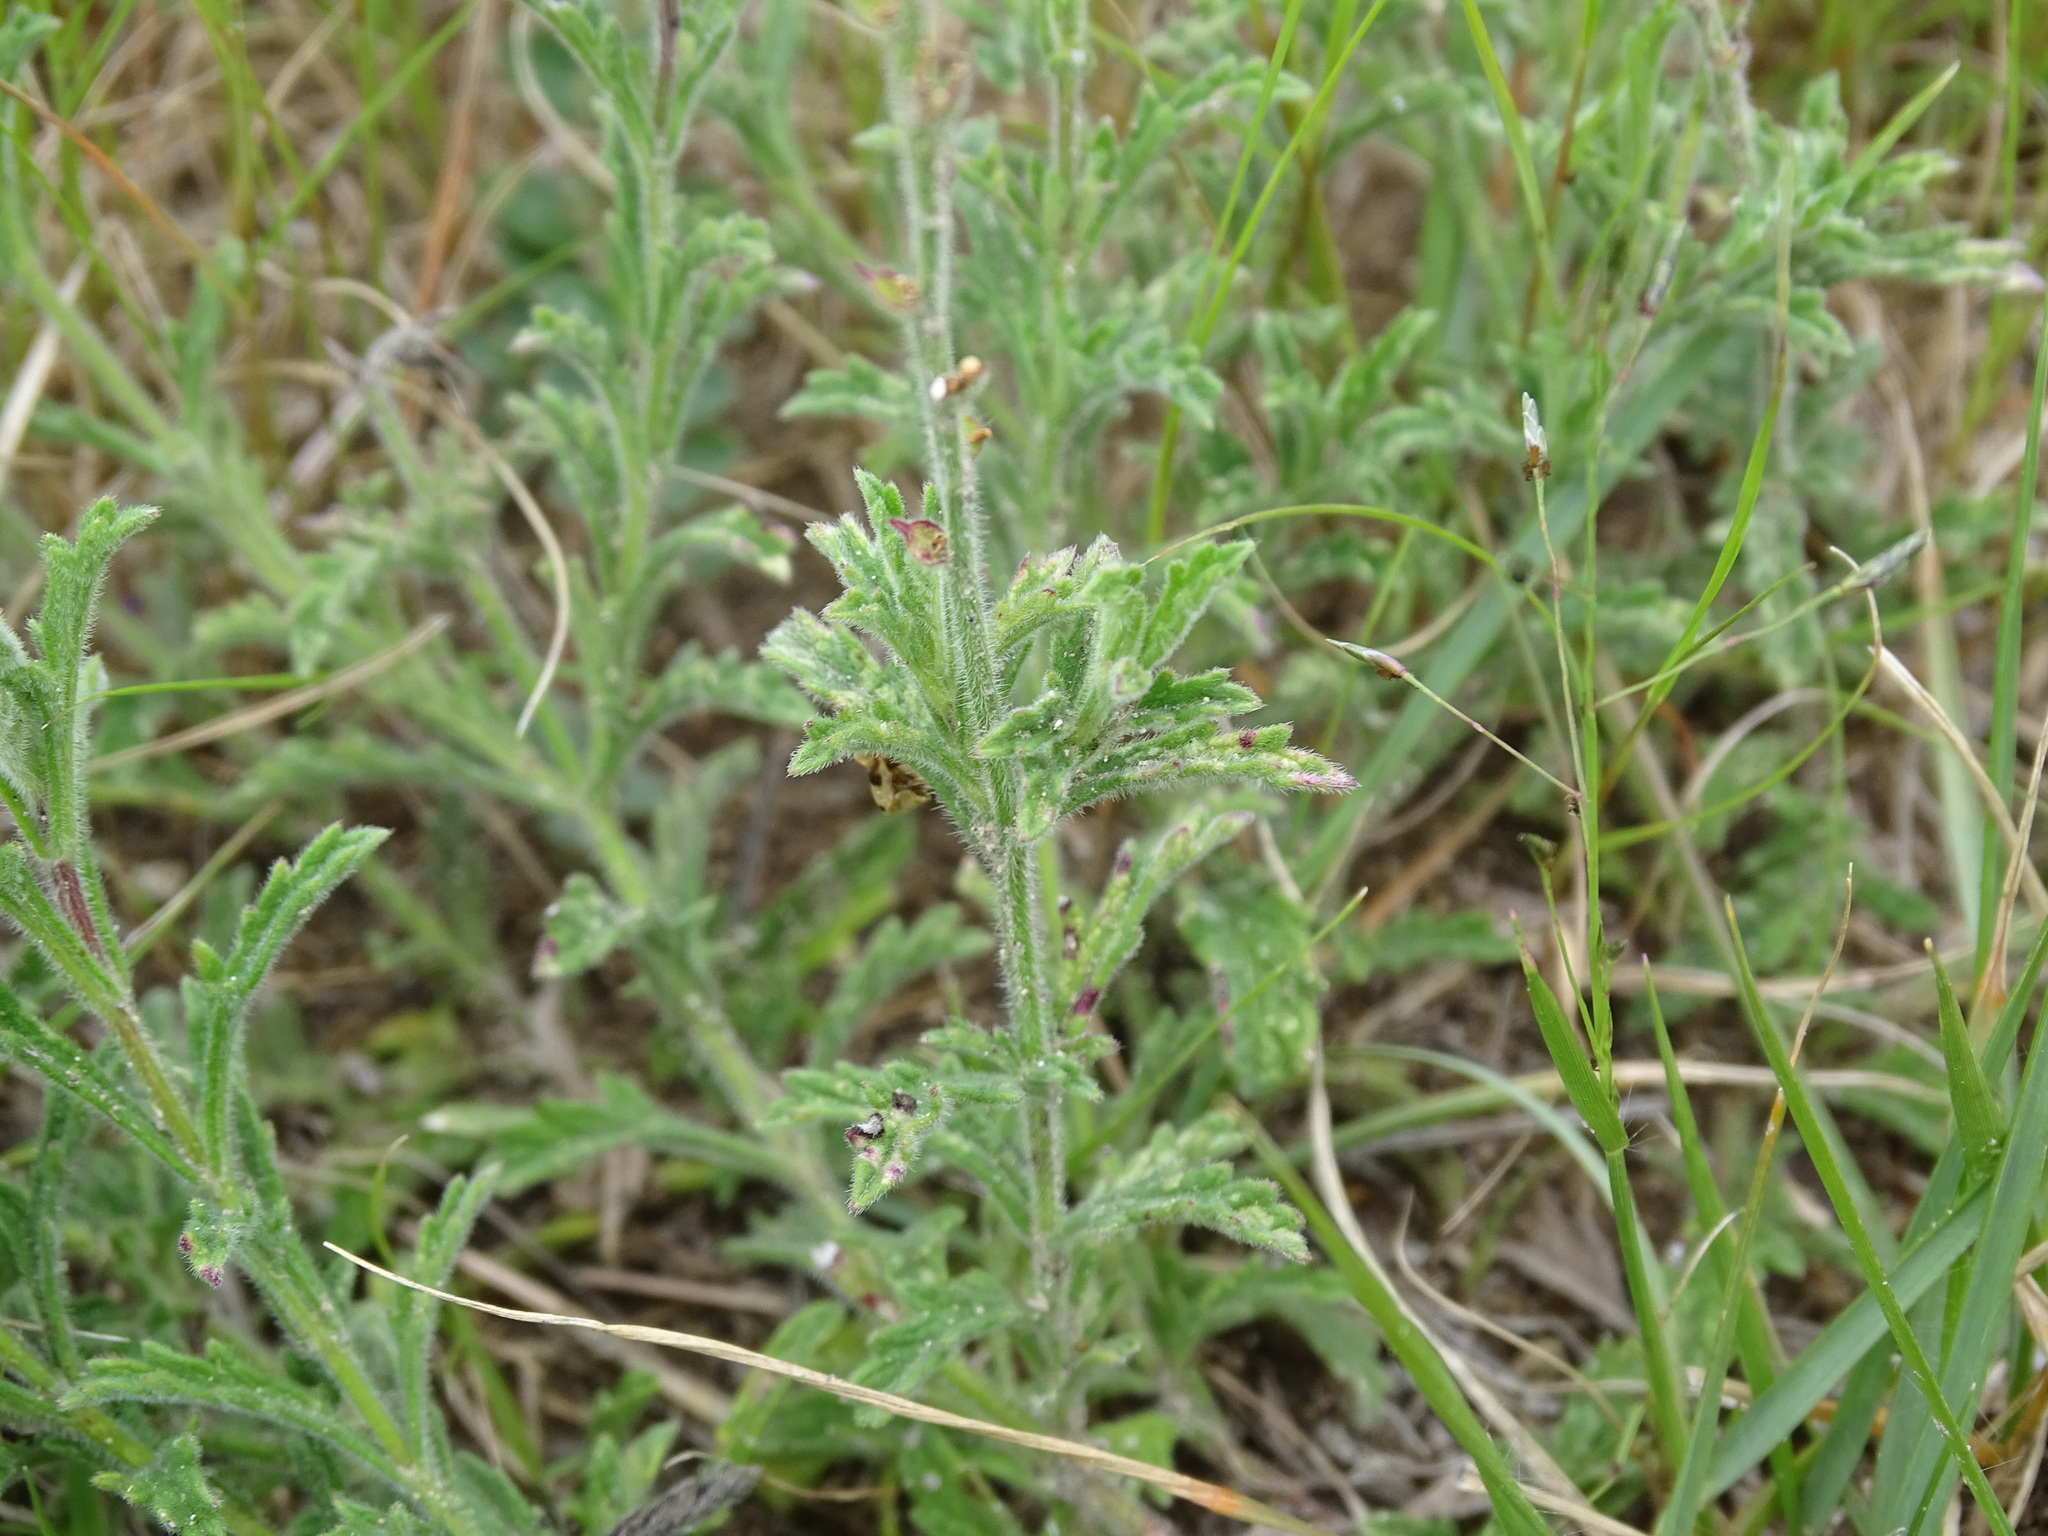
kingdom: Plantae
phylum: Tracheophyta
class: Magnoliopsida
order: Lamiales
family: Verbenaceae
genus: Verbena
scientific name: Verbena canescens
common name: Gray vervain
